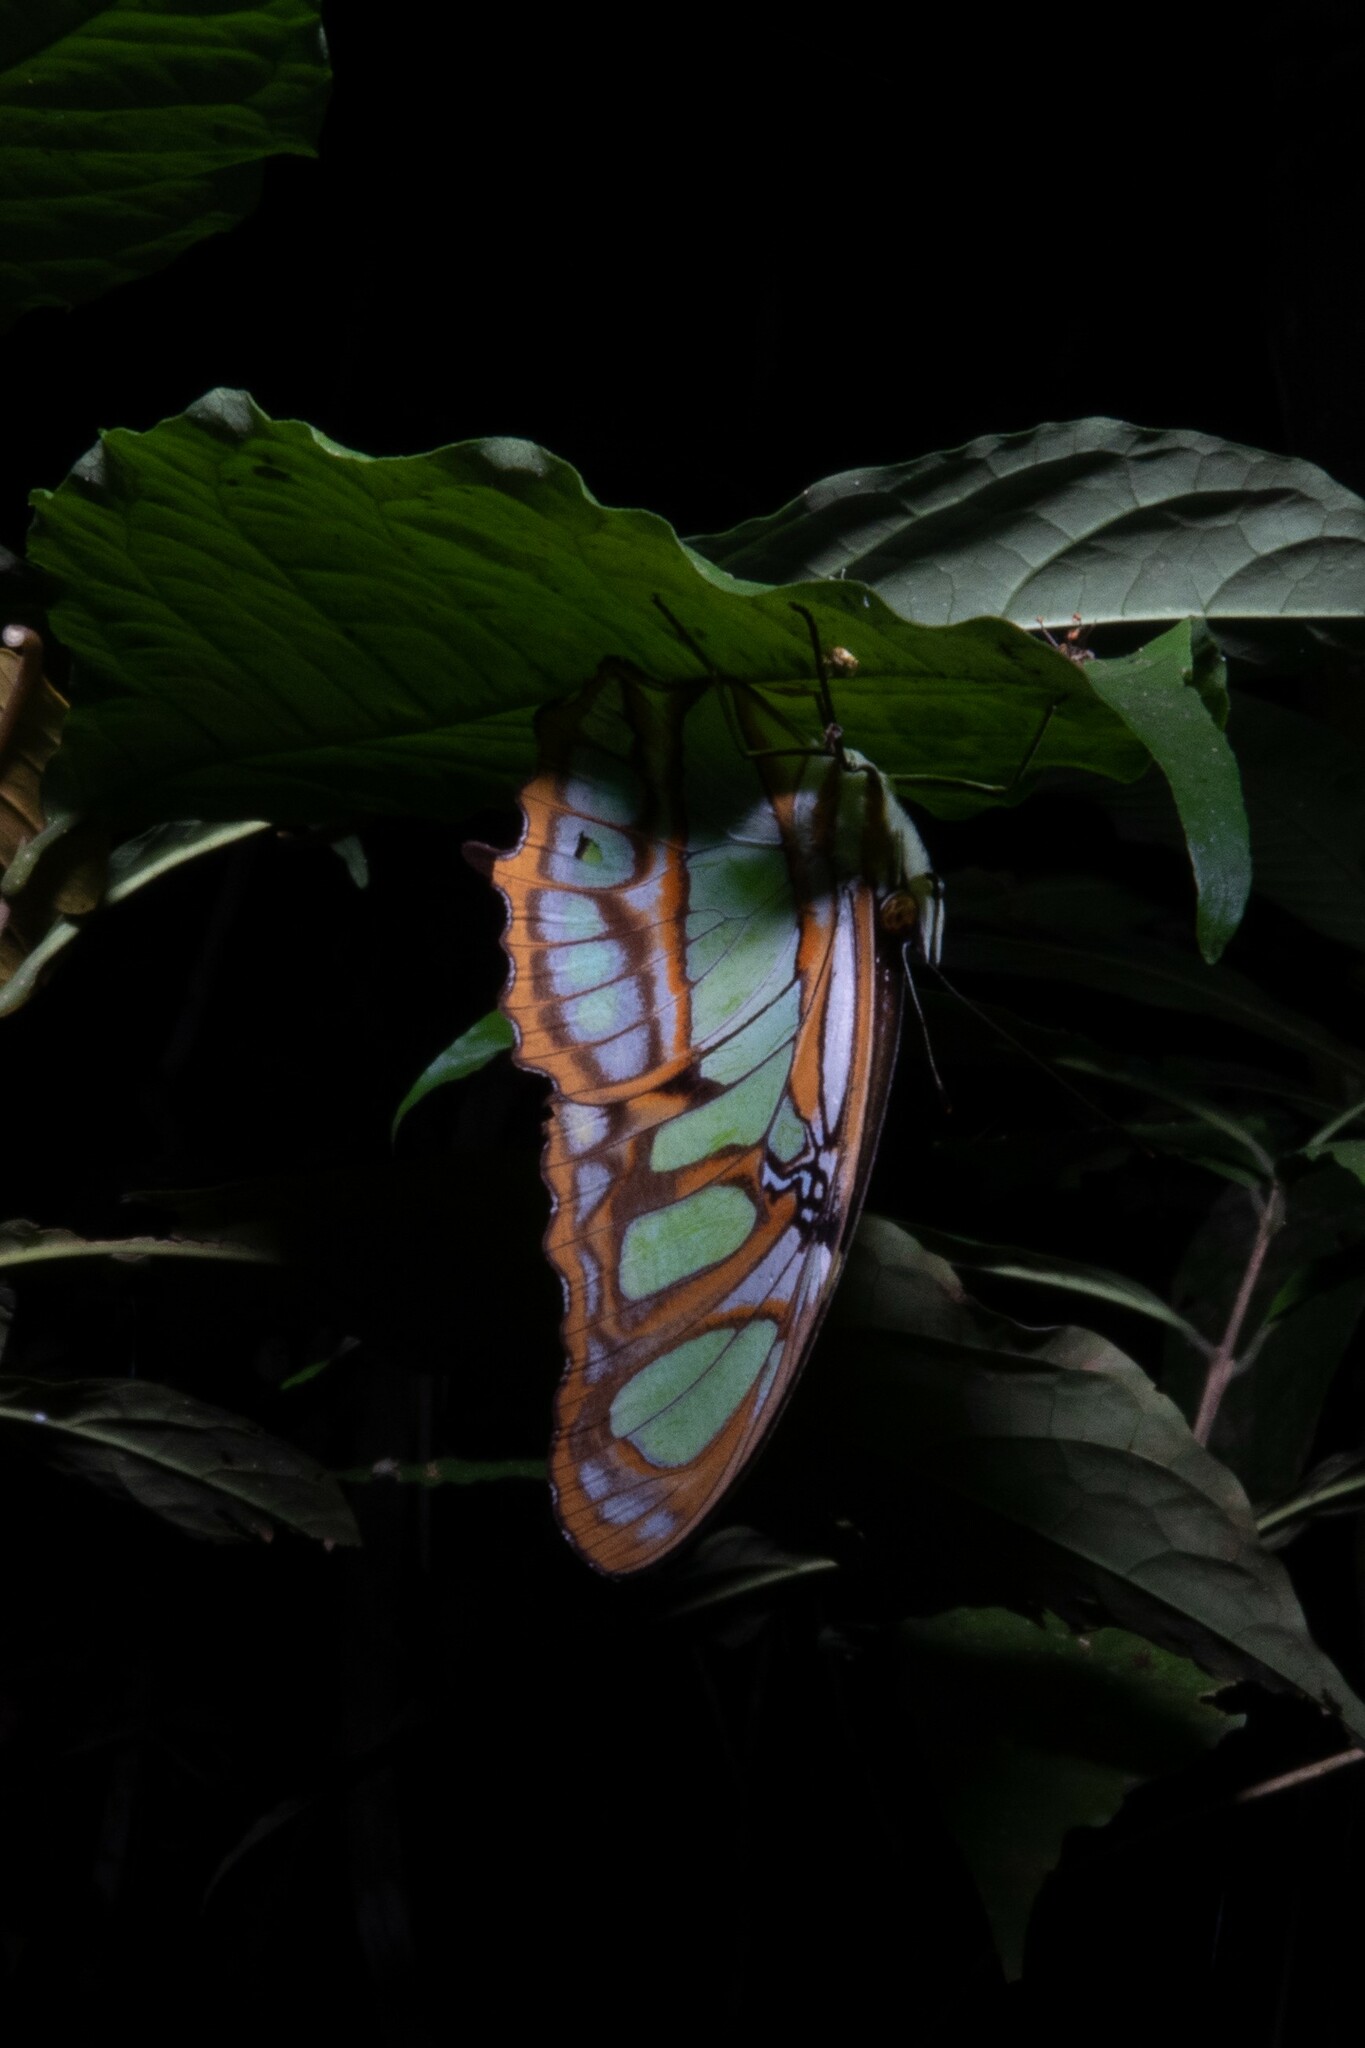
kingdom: Animalia
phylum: Arthropoda
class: Insecta
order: Lepidoptera
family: Nymphalidae
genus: Siproeta
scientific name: Siproeta stelenes
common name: Malachite
